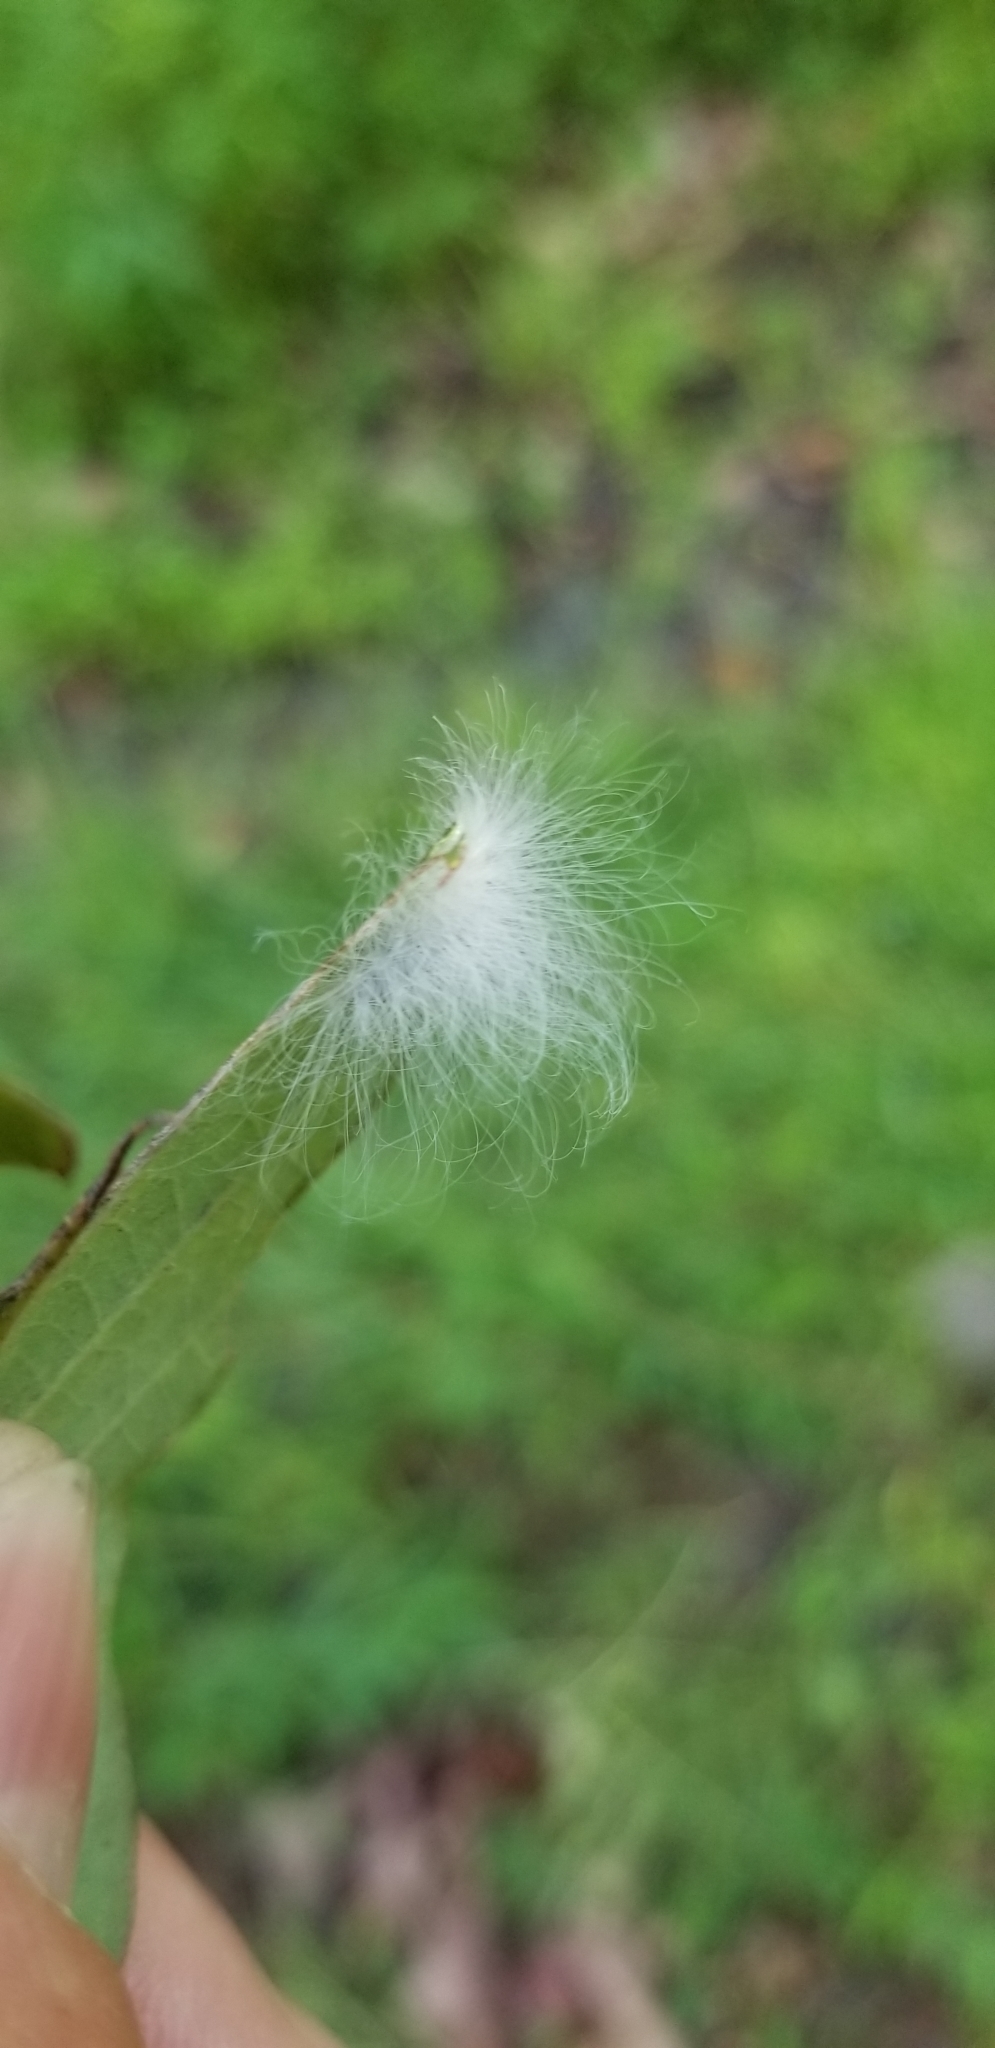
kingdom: Animalia
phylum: Arthropoda
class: Insecta
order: Lepidoptera
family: Megalopygidae
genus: Megalopyge
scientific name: Megalopyge crispata
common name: Black-waved flannel moth
